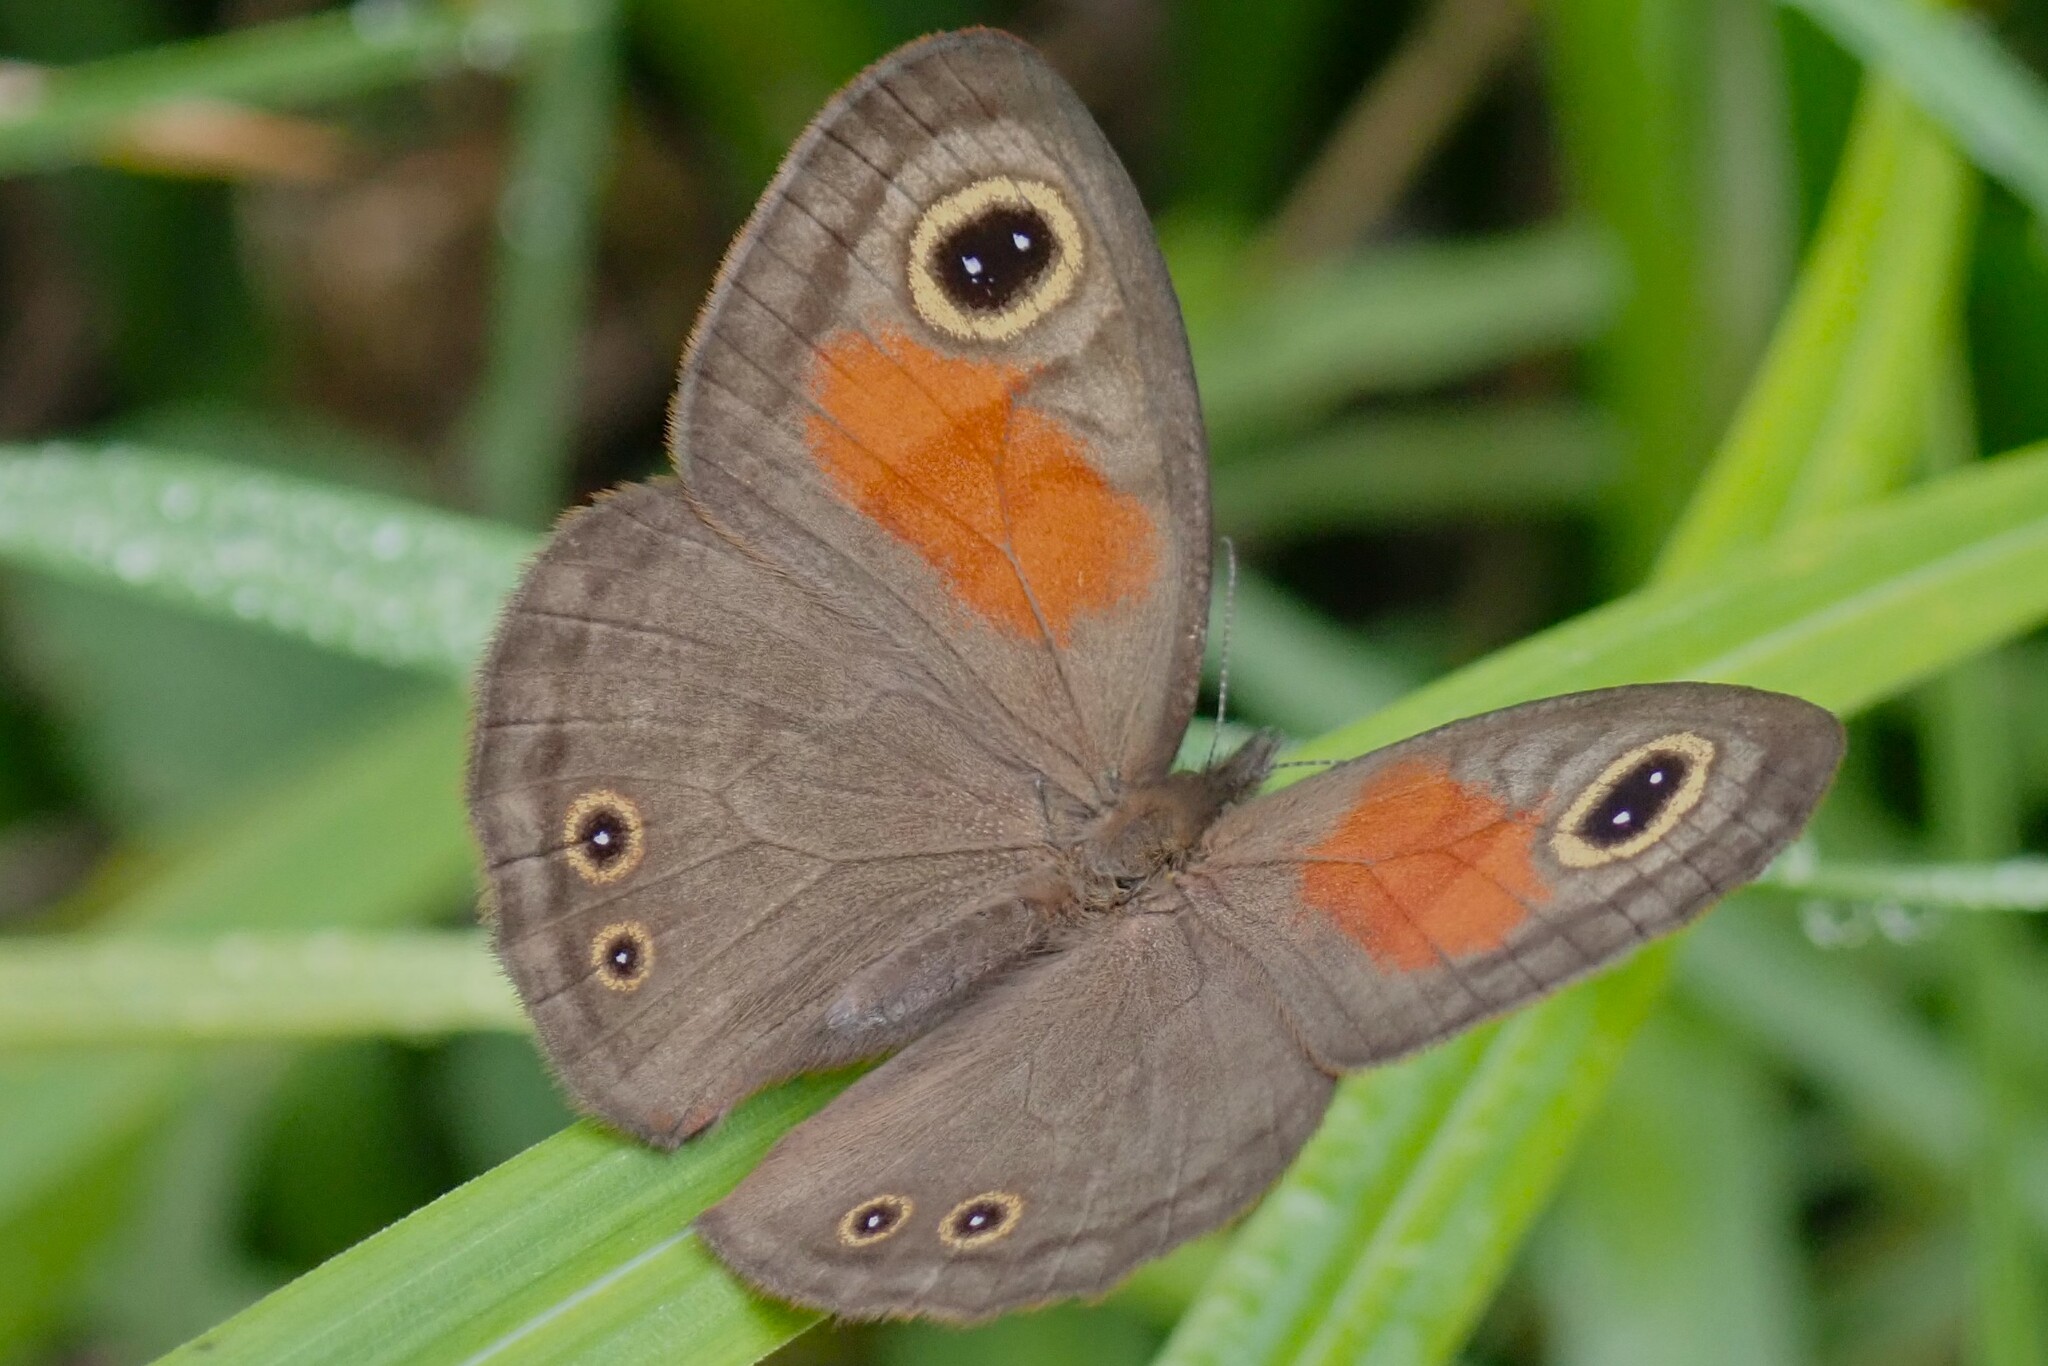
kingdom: Animalia
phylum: Arthropoda
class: Insecta
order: Lepidoptera
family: Nymphalidae
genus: Cassionympha
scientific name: Cassionympha cassius
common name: Rainforest brown
